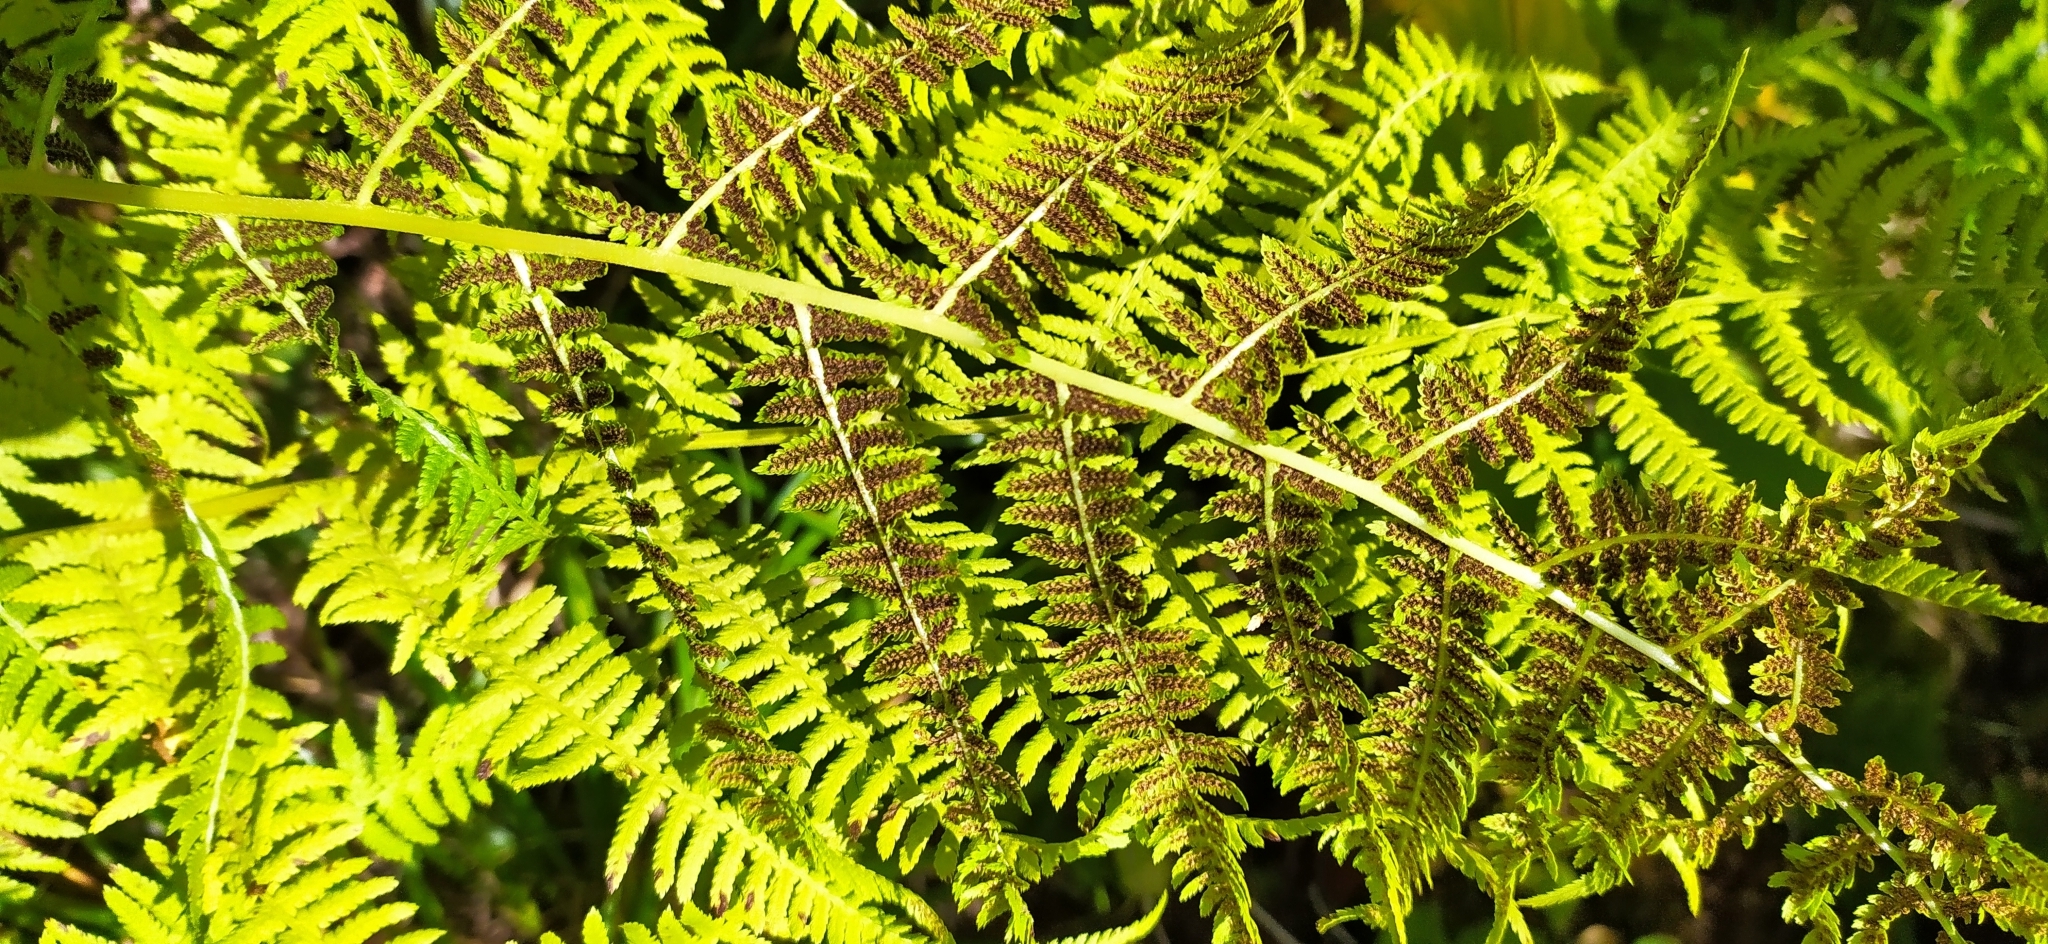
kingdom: Plantae
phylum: Tracheophyta
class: Polypodiopsida
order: Polypodiales
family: Athyriaceae
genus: Pseudathyrium
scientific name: Pseudathyrium alpestre
